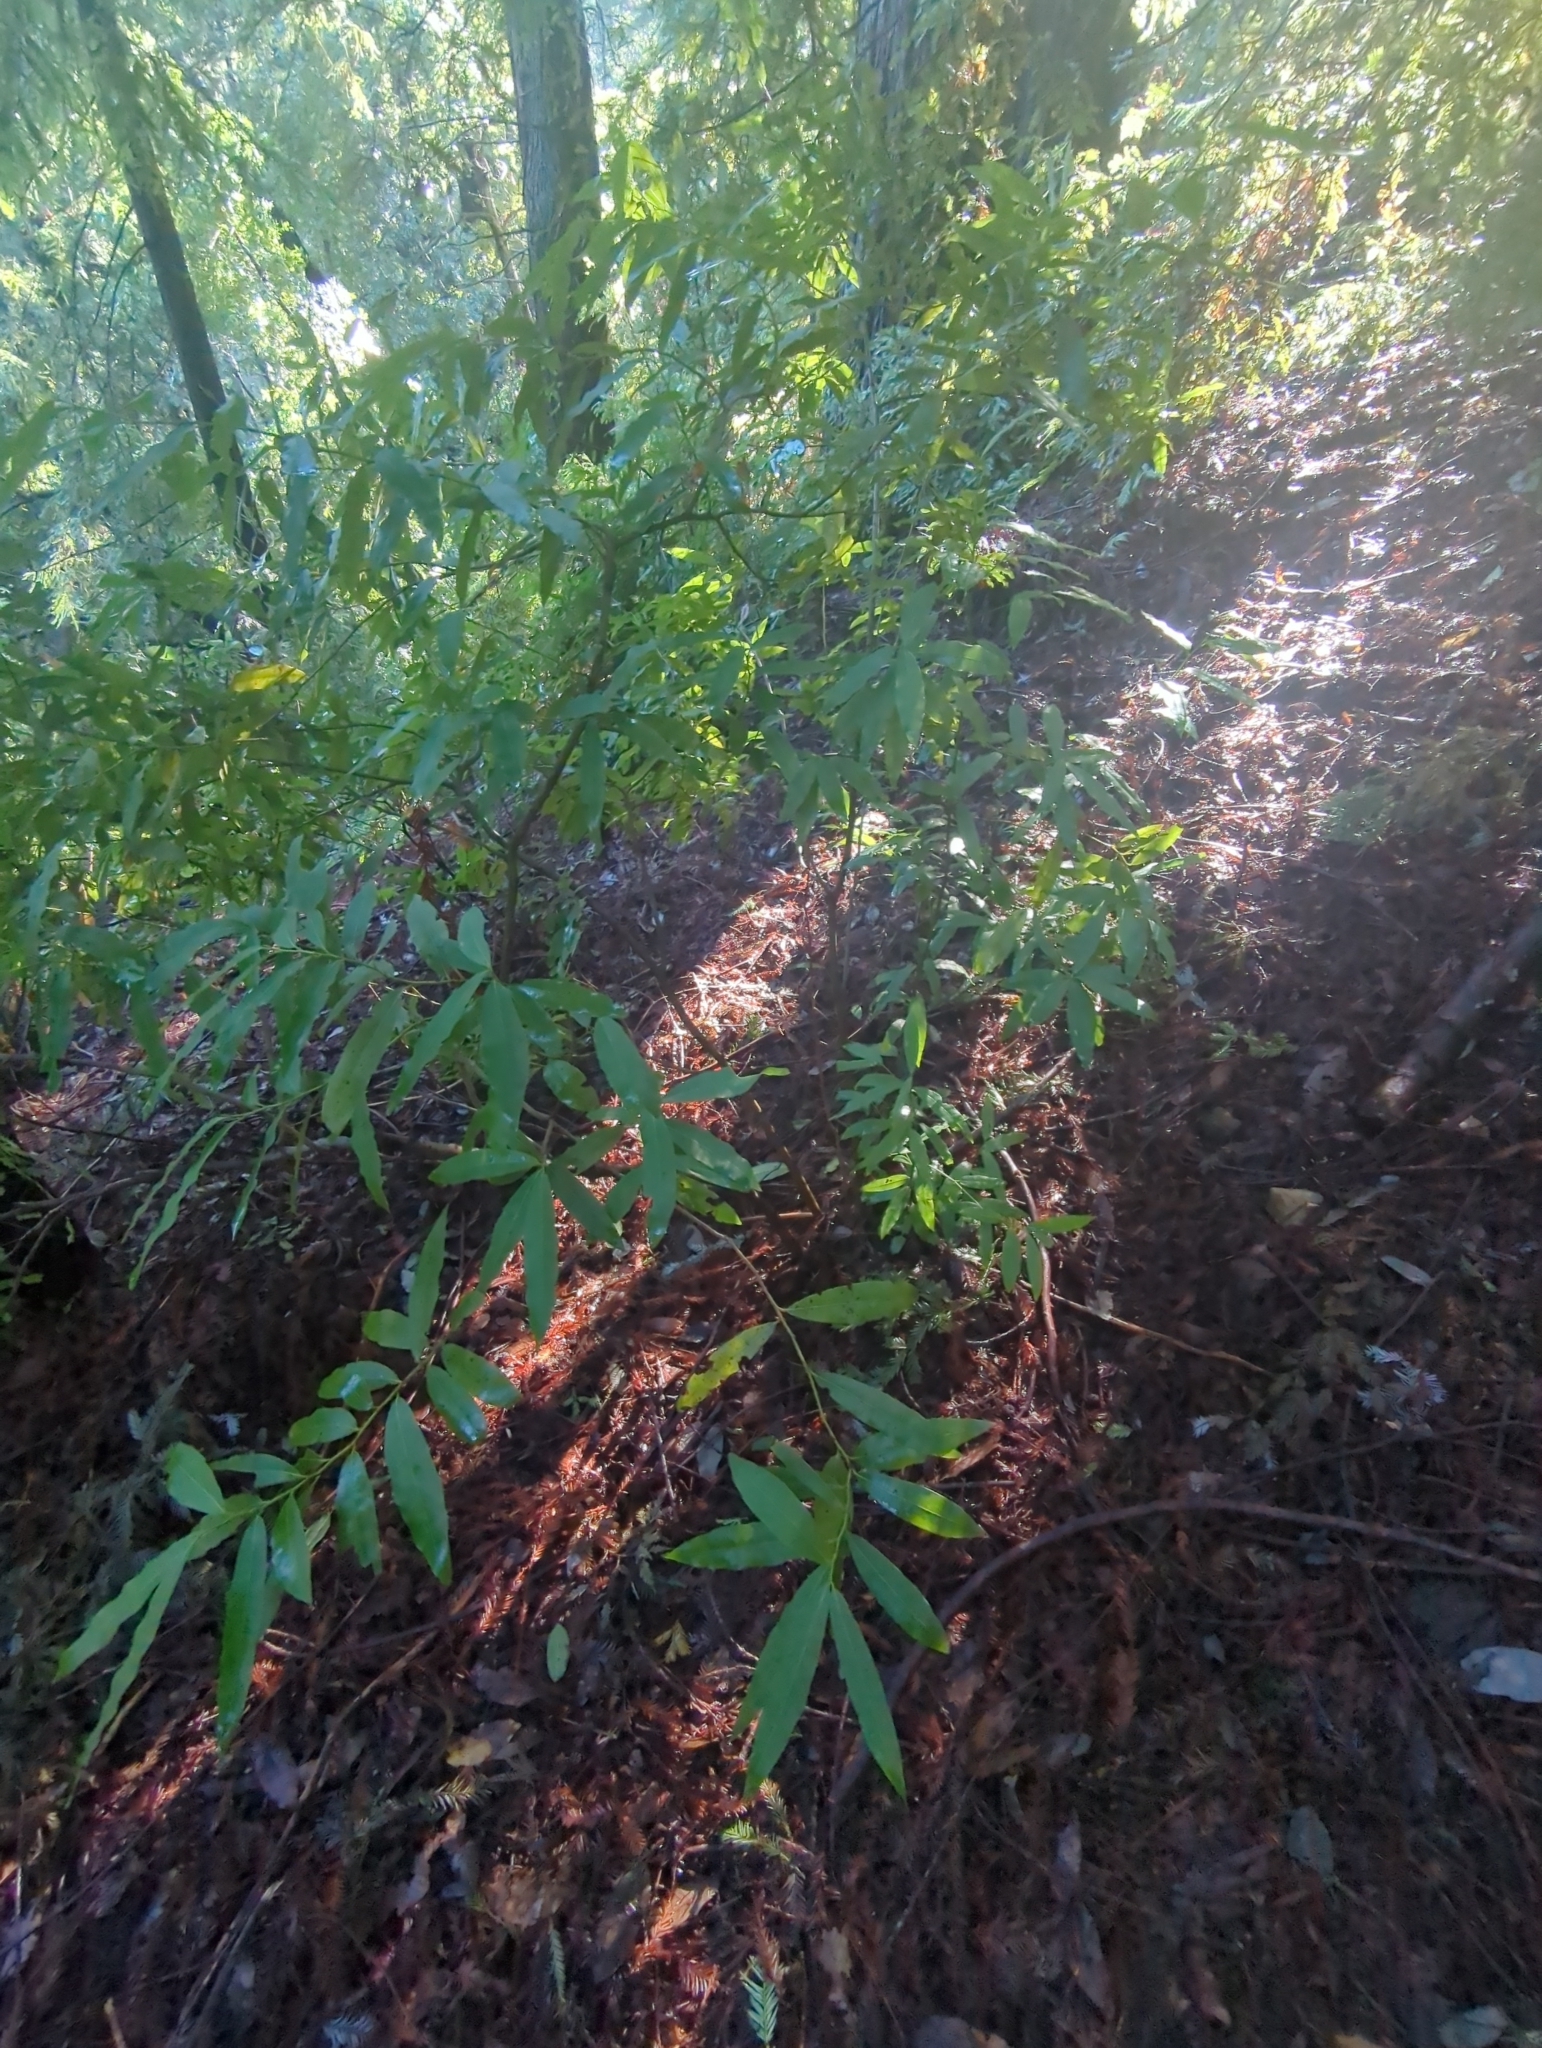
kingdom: Plantae
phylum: Tracheophyta
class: Magnoliopsida
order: Laurales
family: Lauraceae
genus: Umbellularia
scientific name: Umbellularia californica
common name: California bay
